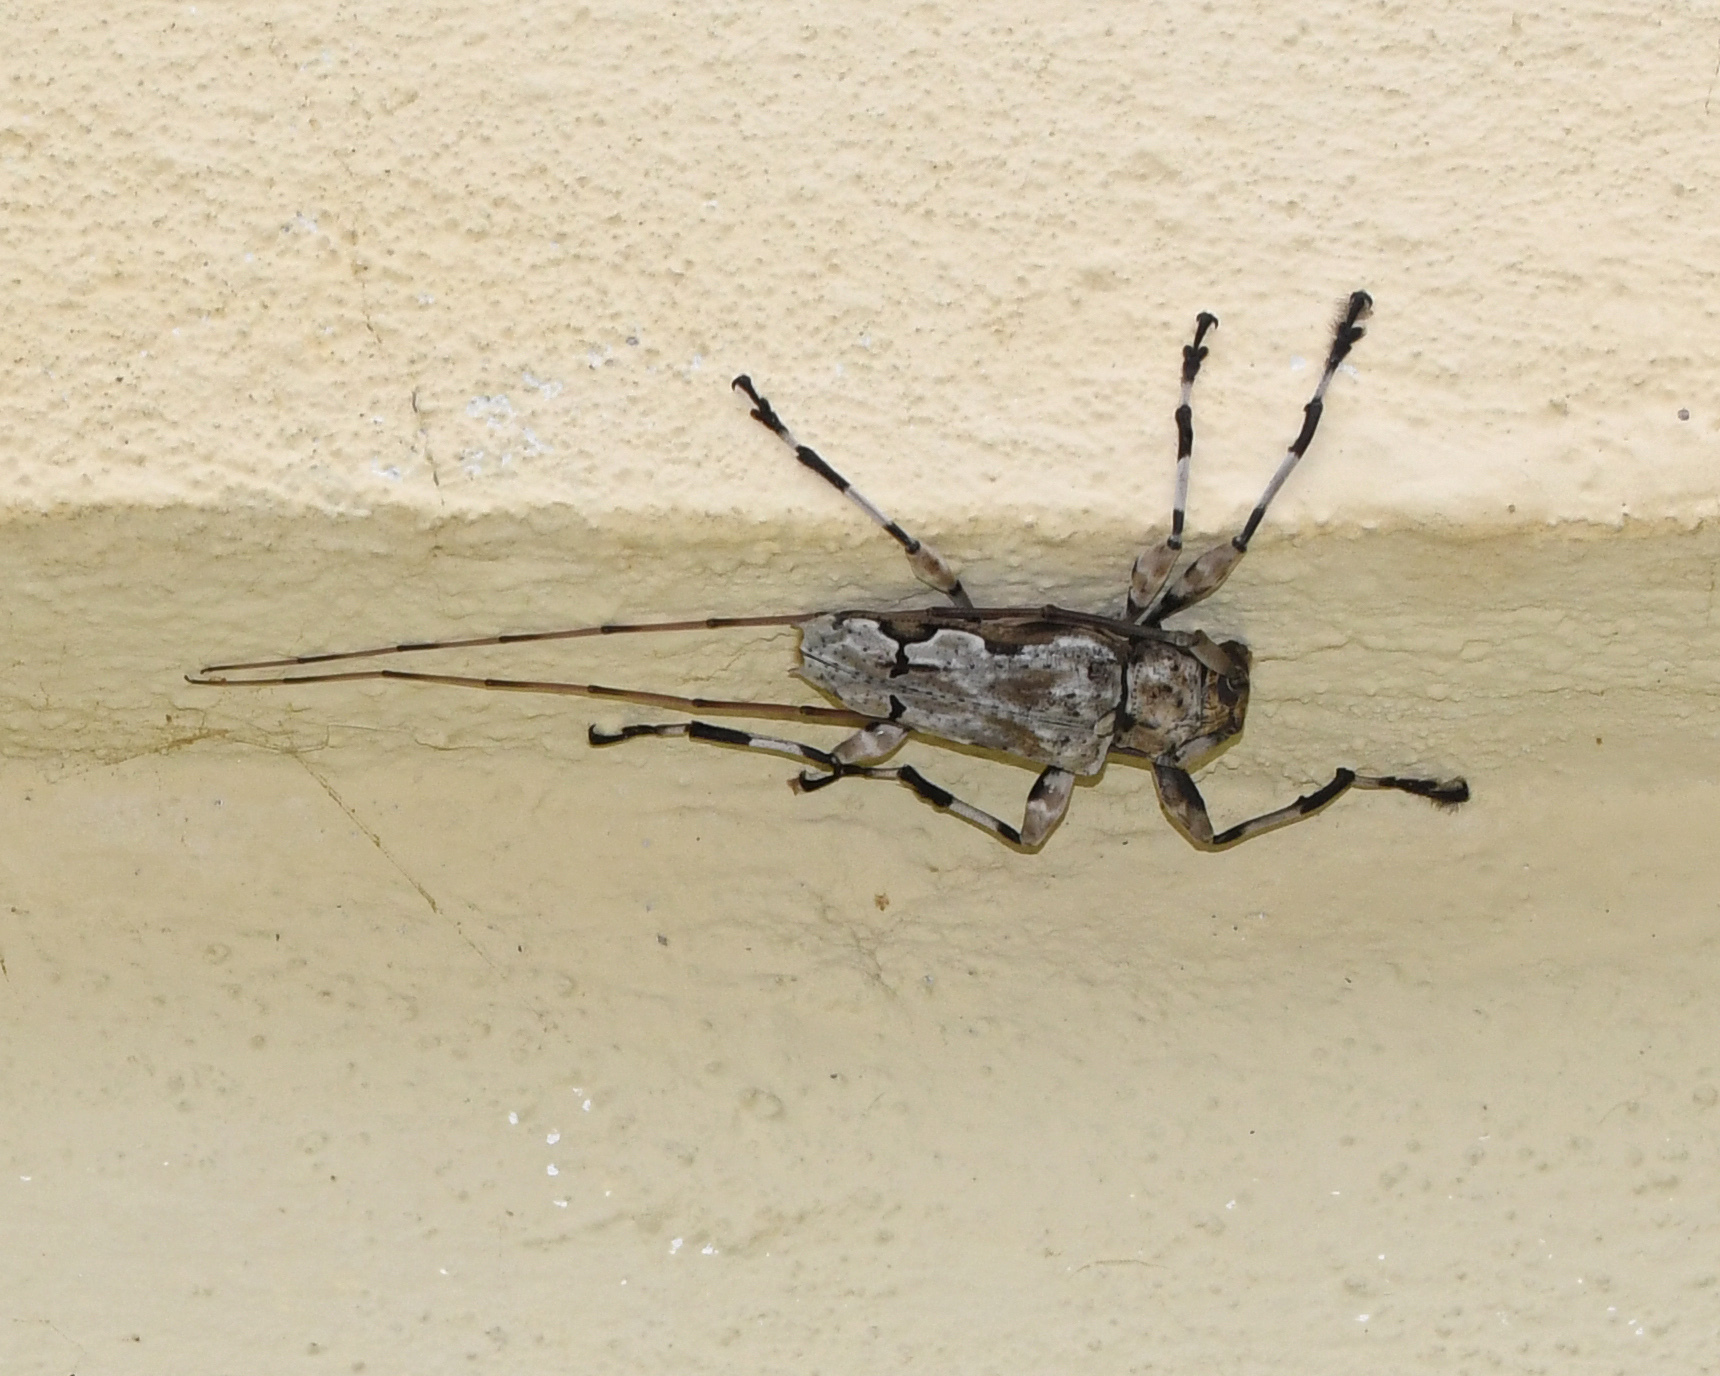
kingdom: Animalia
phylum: Arthropoda
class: Insecta
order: Coleoptera
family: Cerambycidae
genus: Oreodera
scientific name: Oreodera glauca
